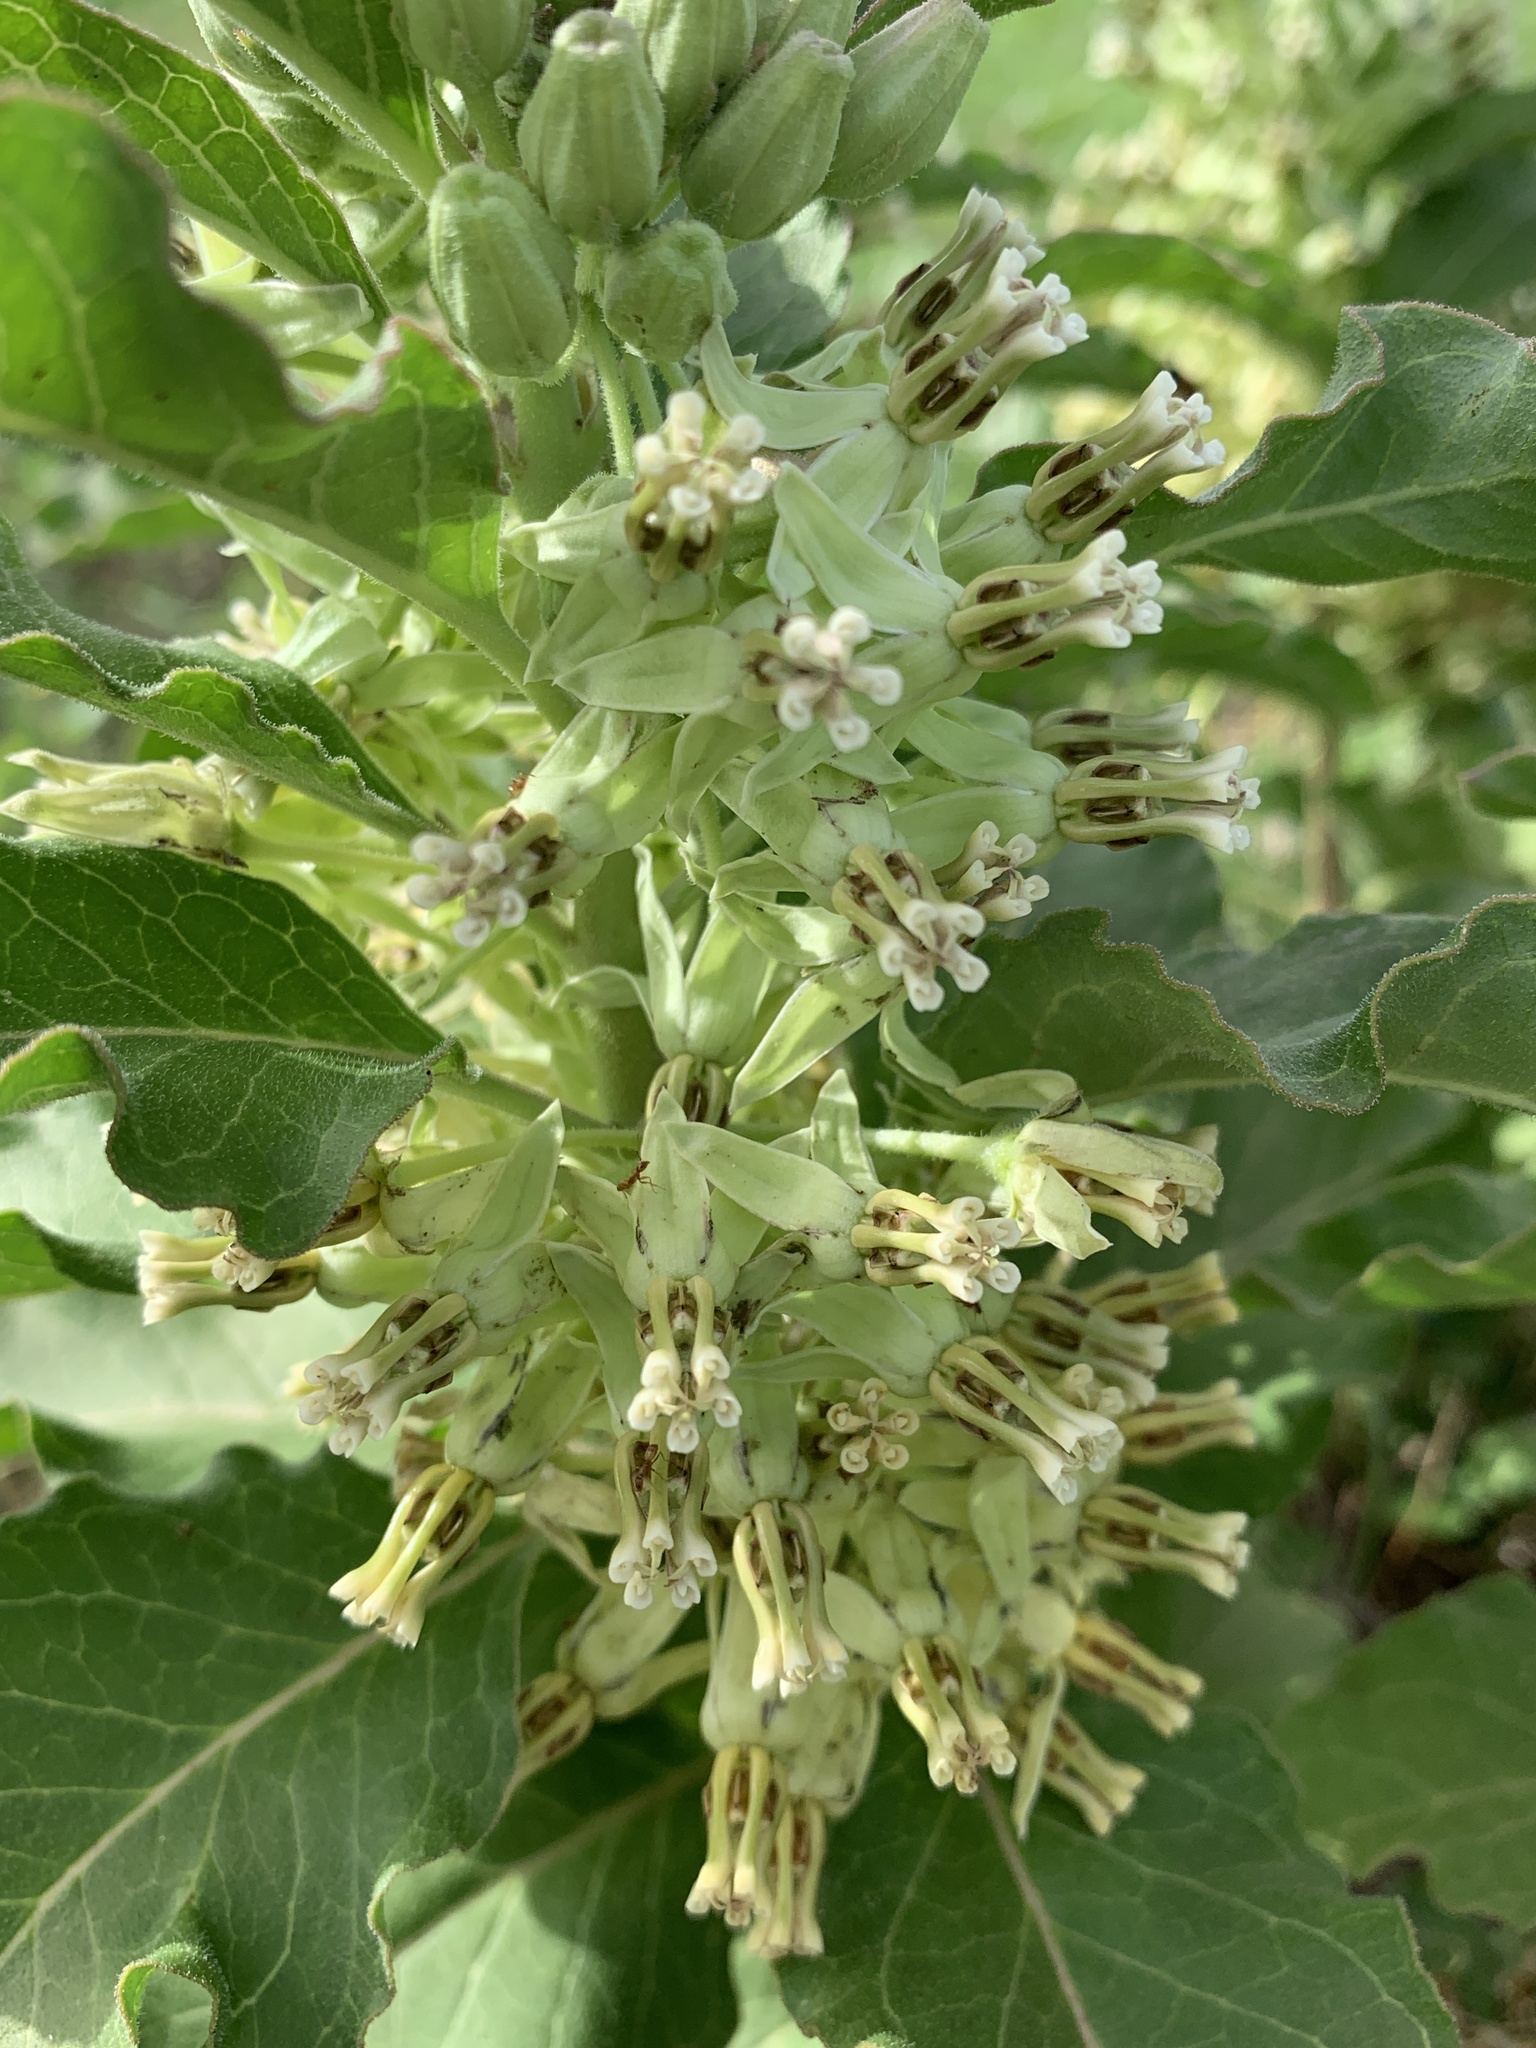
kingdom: Plantae
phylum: Tracheophyta
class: Magnoliopsida
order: Gentianales
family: Apocynaceae
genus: Asclepias
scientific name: Asclepias oenotheroides
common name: Zizotes milkweed
